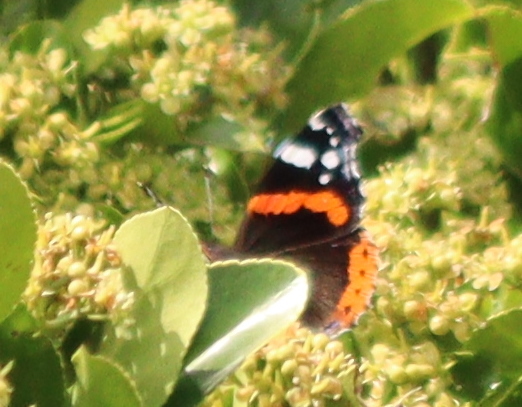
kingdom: Animalia
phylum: Arthropoda
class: Insecta
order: Lepidoptera
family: Nymphalidae
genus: Vanessa
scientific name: Vanessa atalanta
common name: Red admiral
